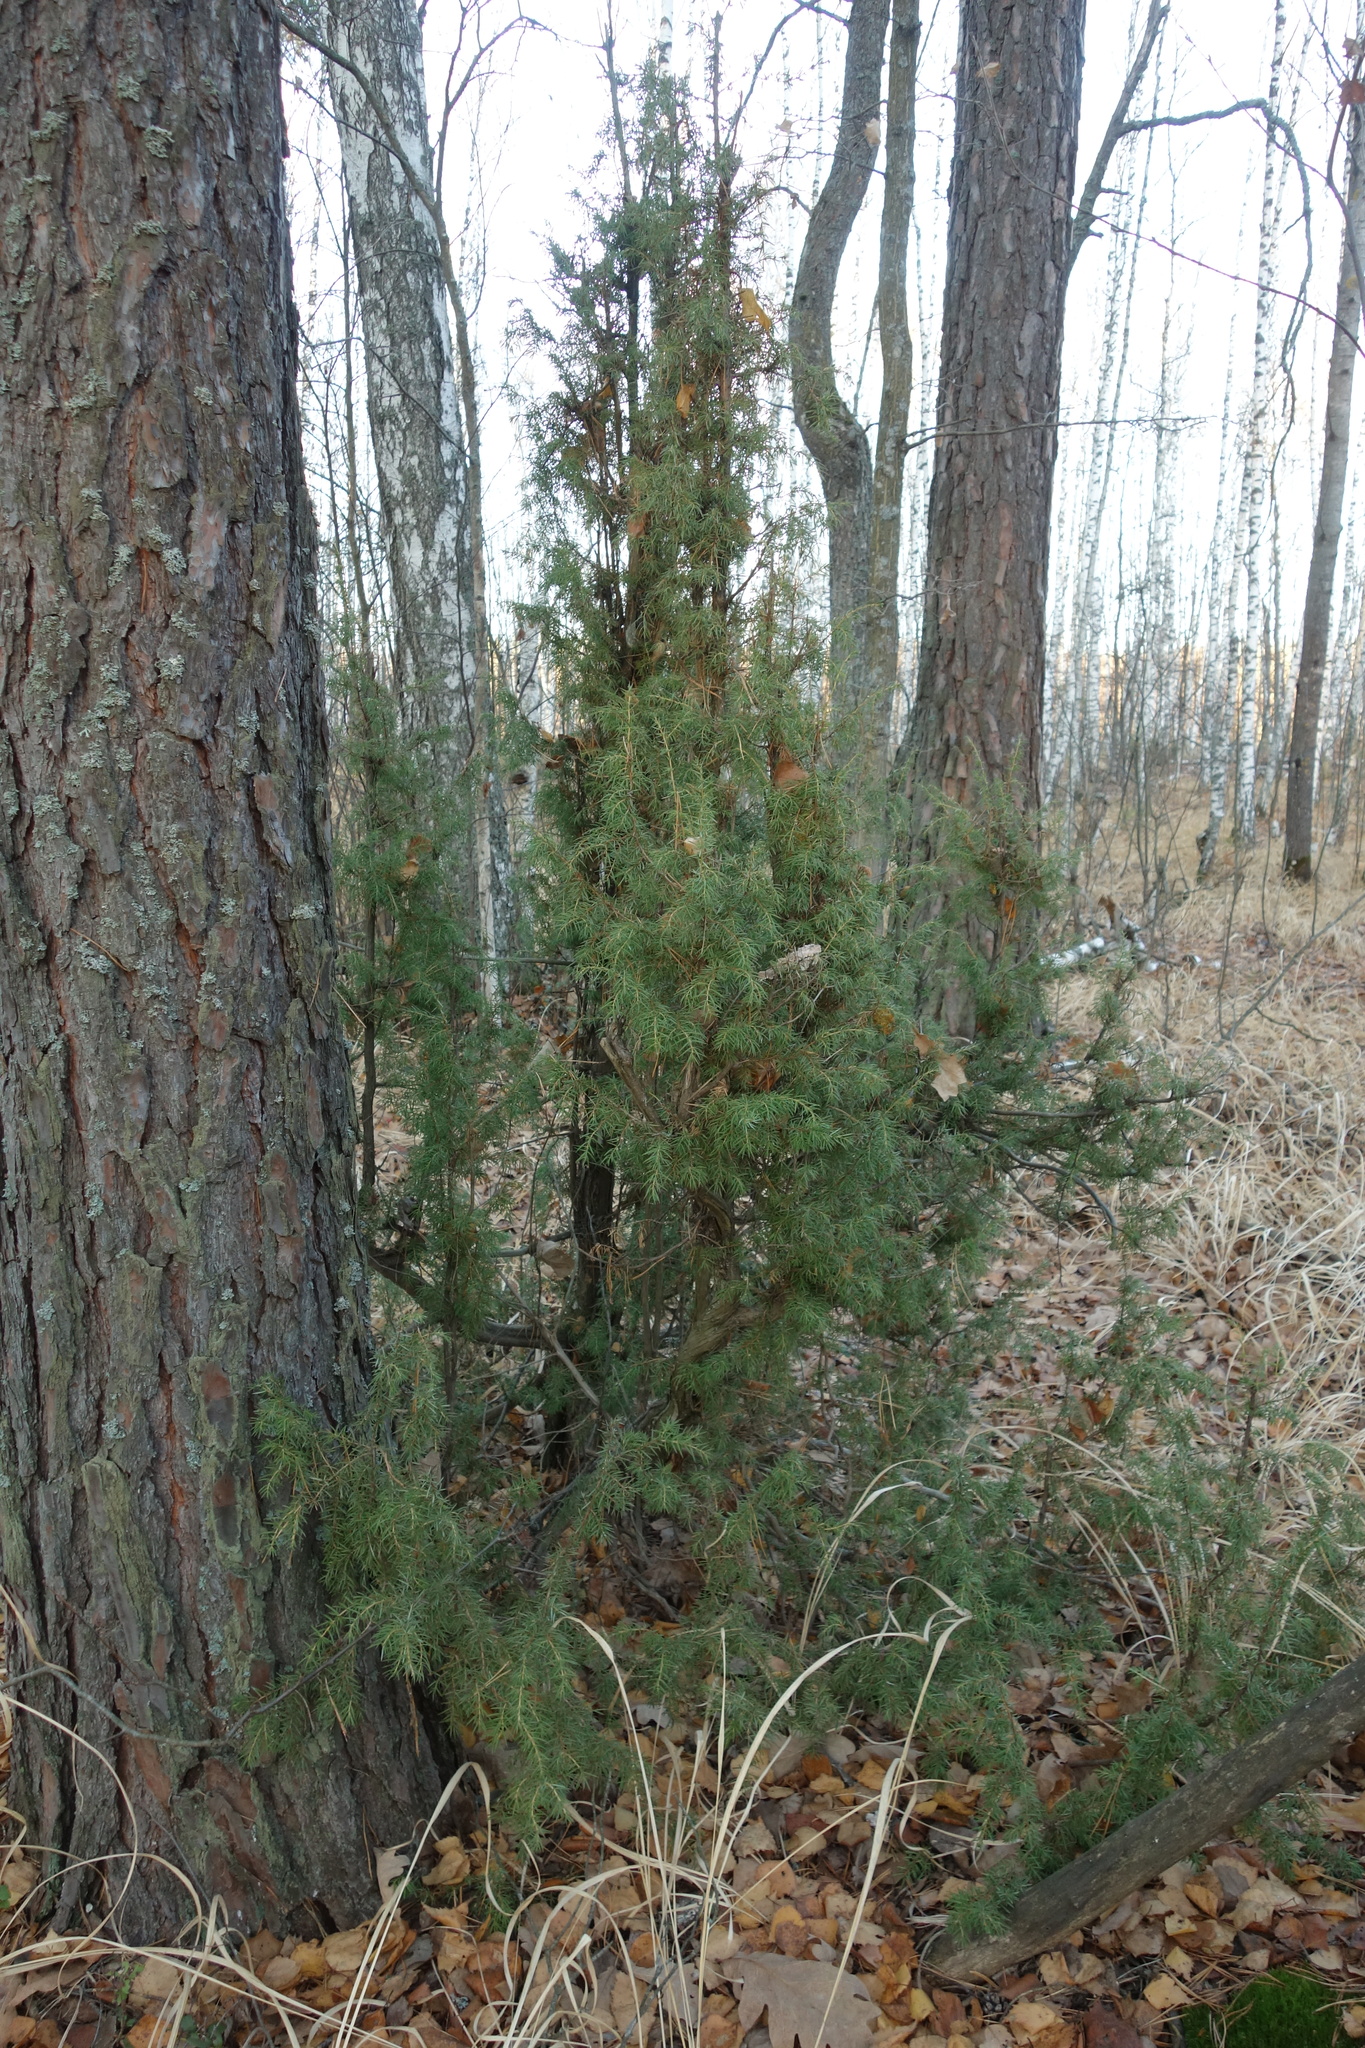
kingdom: Plantae
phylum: Tracheophyta
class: Pinopsida
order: Pinales
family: Cupressaceae
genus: Juniperus
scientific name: Juniperus communis
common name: Common juniper
